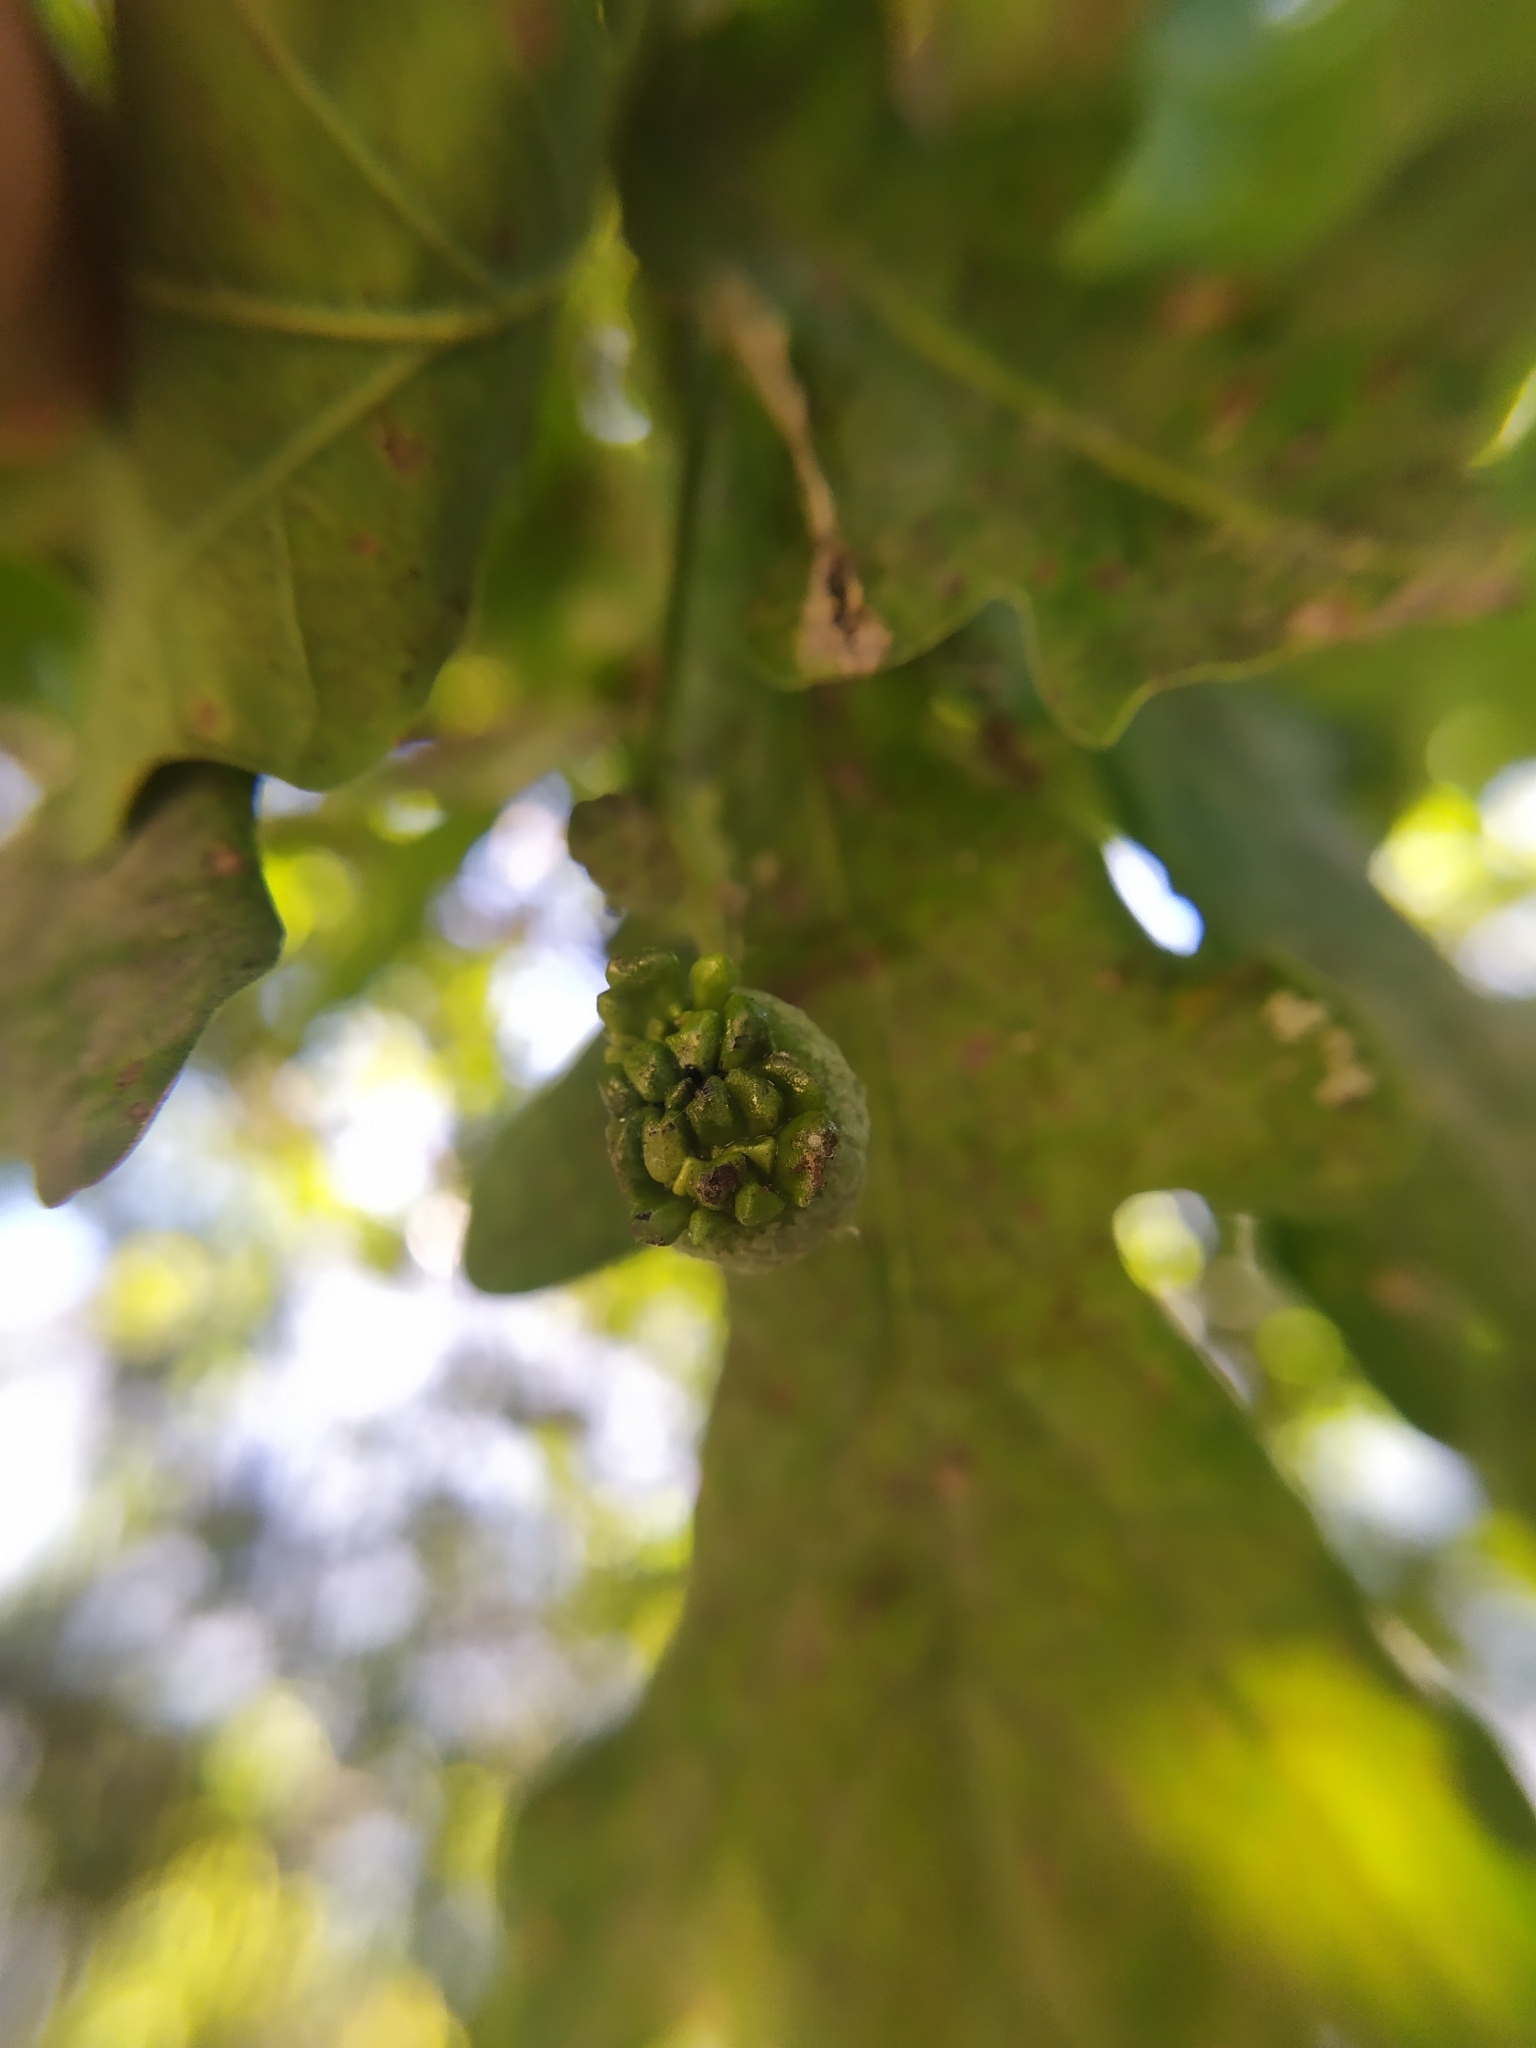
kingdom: Animalia
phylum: Arthropoda
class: Insecta
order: Hymenoptera
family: Cynipidae
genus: Andricus
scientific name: Andricus quercuscalicis
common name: Knopper gall
